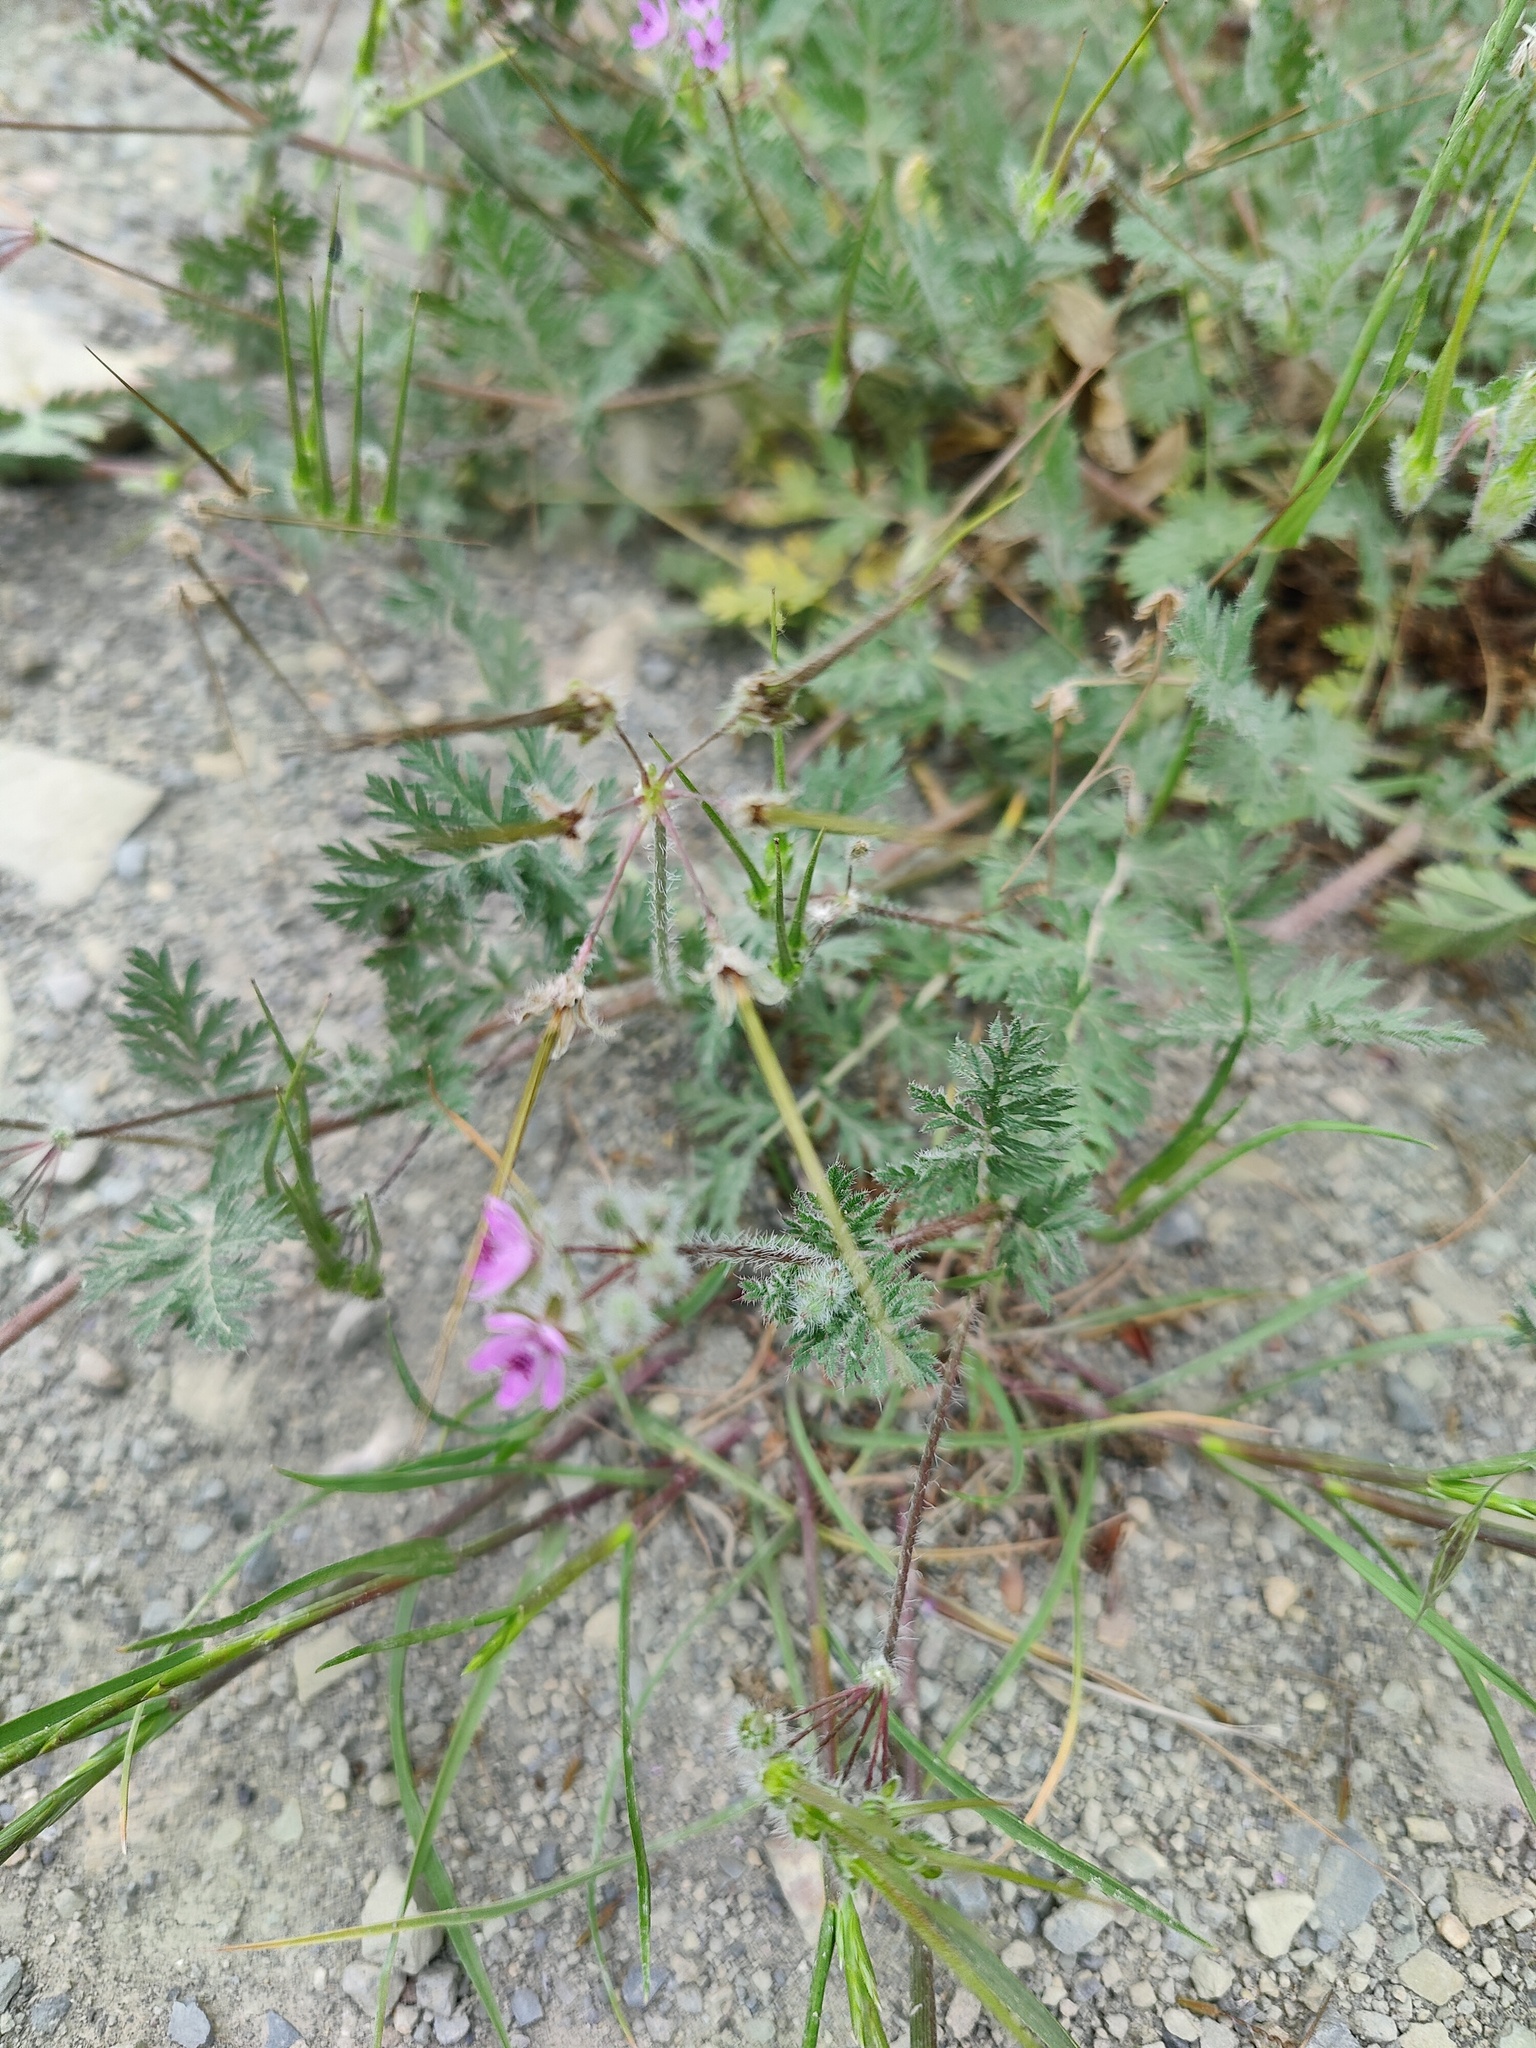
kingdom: Plantae
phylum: Tracheophyta
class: Magnoliopsida
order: Geraniales
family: Geraniaceae
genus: Erodium
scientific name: Erodium cicutarium
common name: Common stork's-bill
